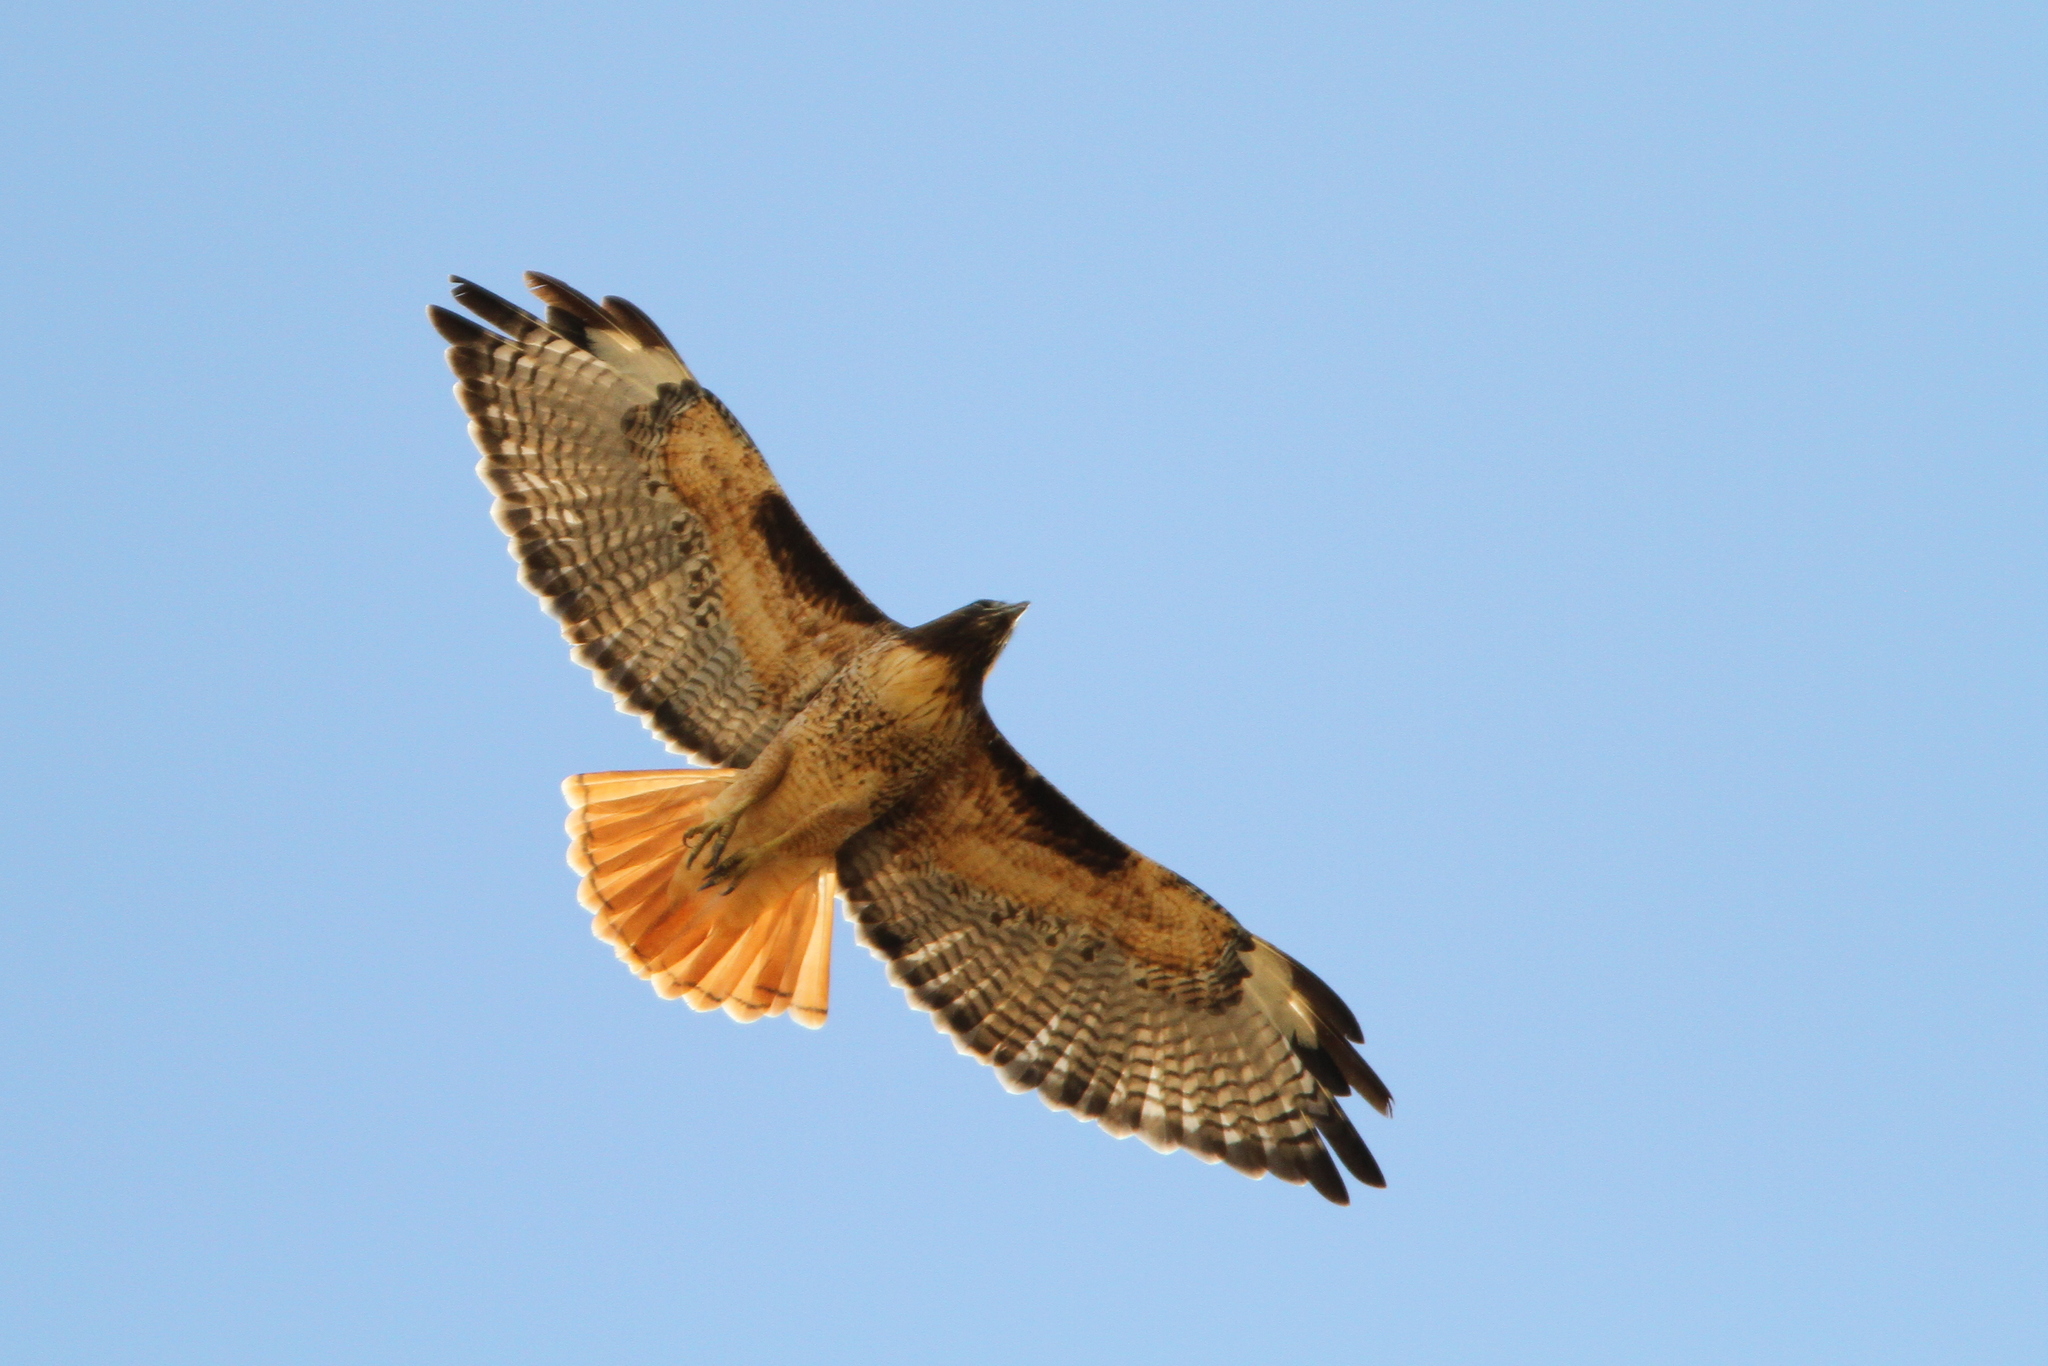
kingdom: Animalia
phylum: Chordata
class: Aves
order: Accipitriformes
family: Accipitridae
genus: Buteo
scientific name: Buteo jamaicensis
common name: Red-tailed hawk
